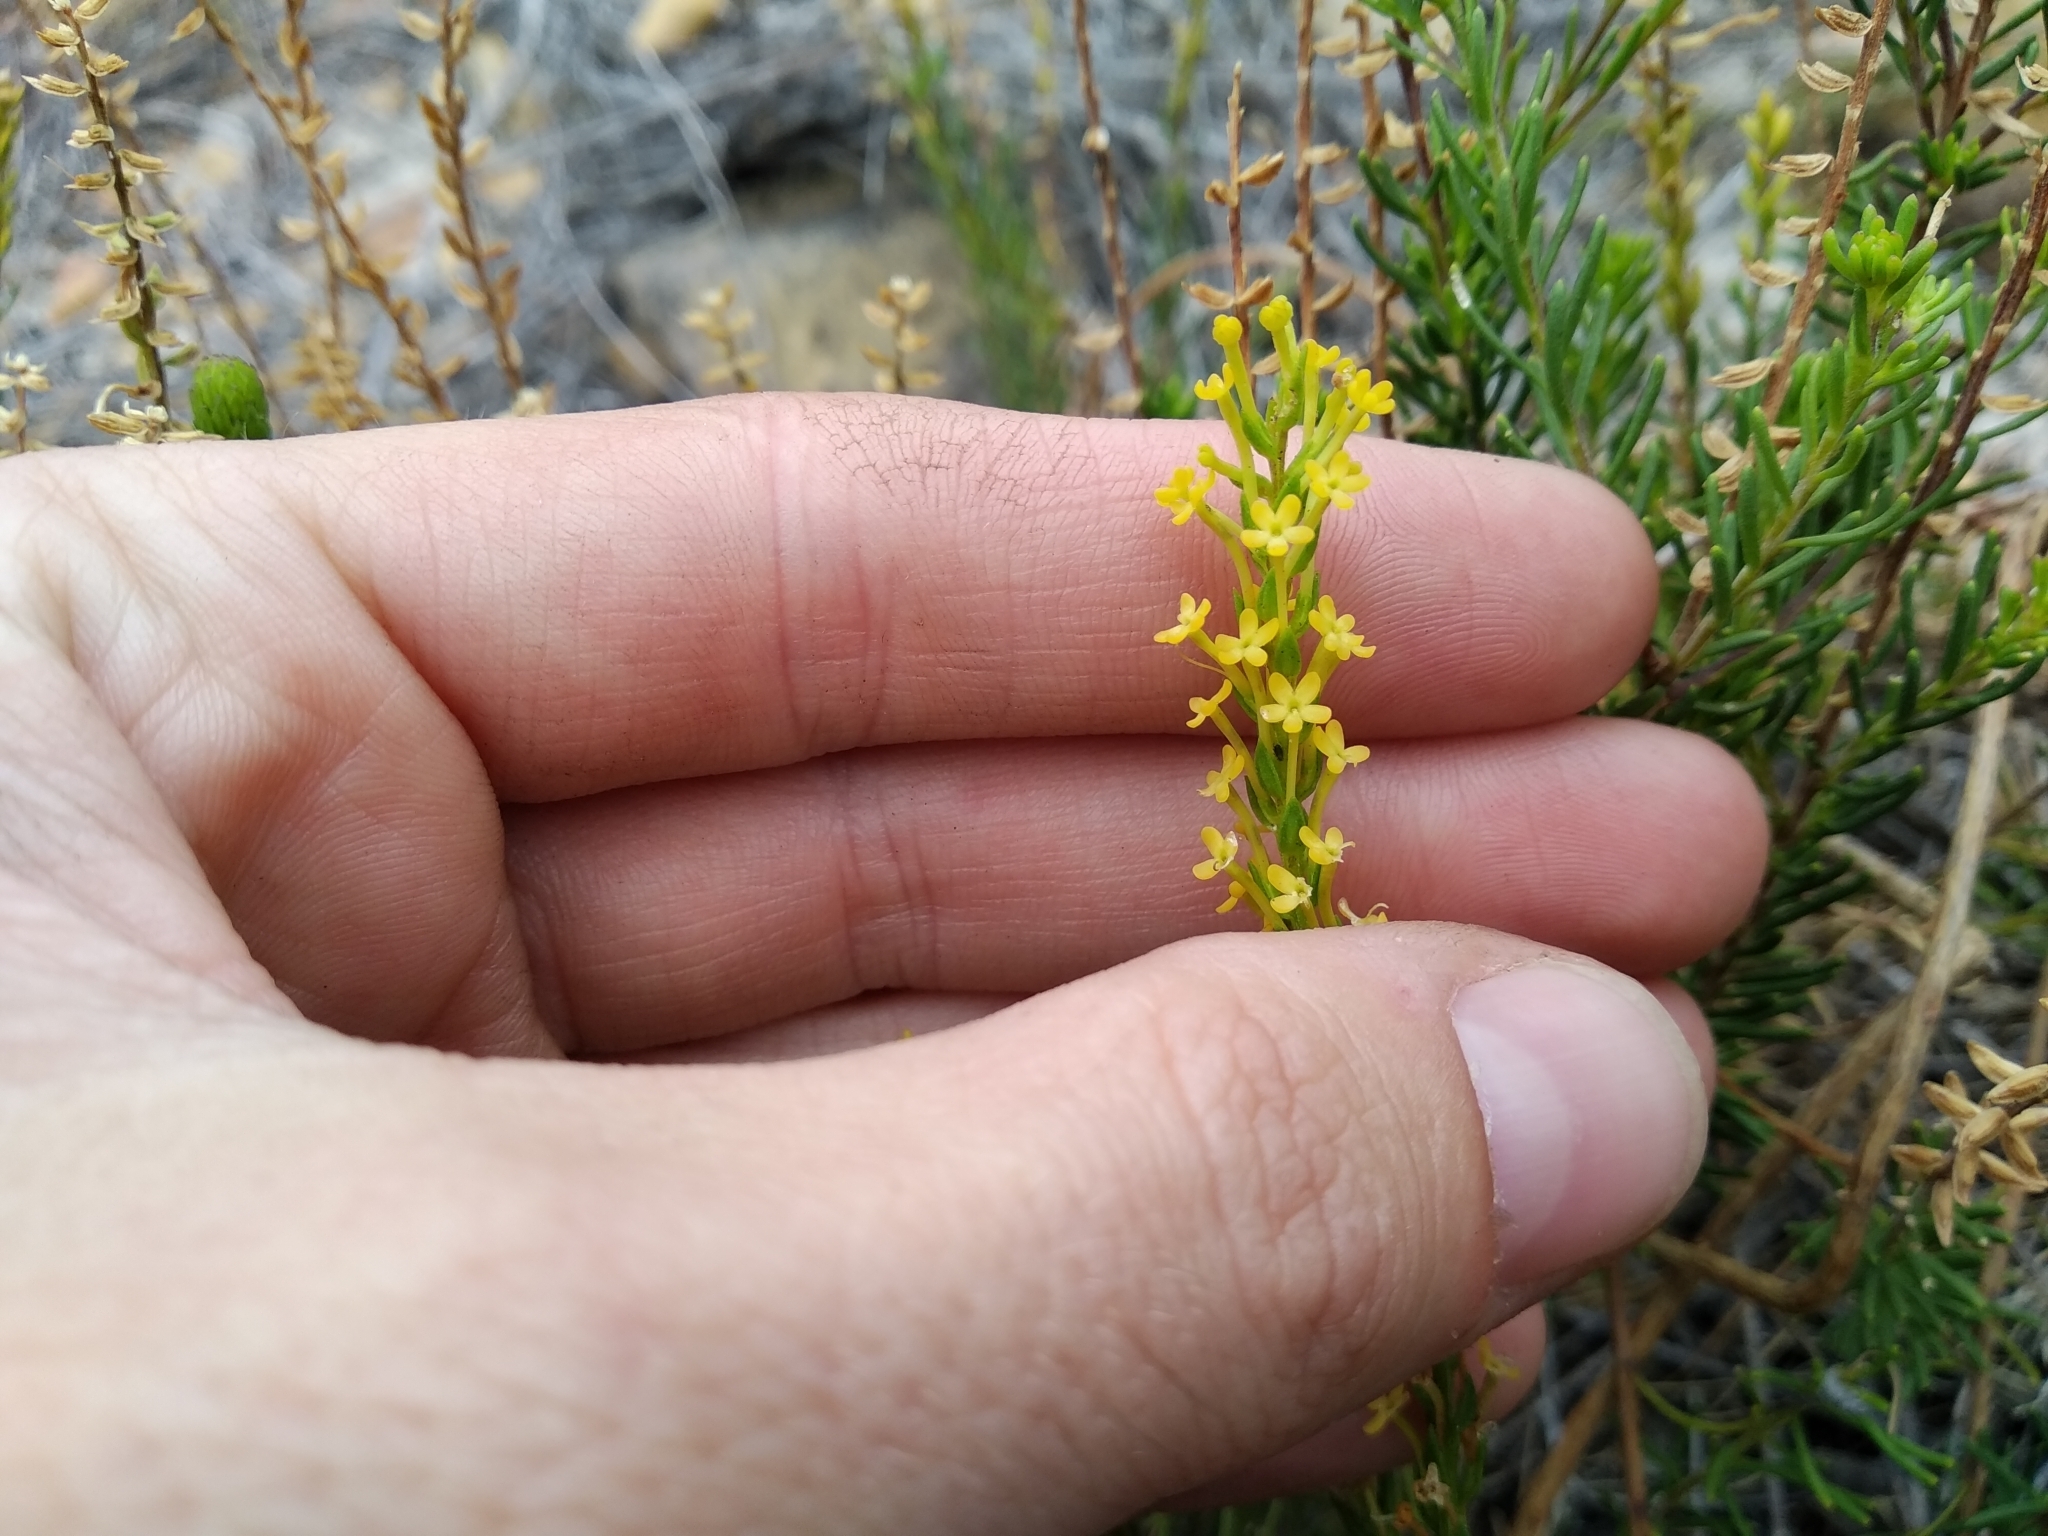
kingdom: Plantae
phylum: Tracheophyta
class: Magnoliopsida
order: Lamiales
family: Scrophulariaceae
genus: Microdon
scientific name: Microdon dubius
